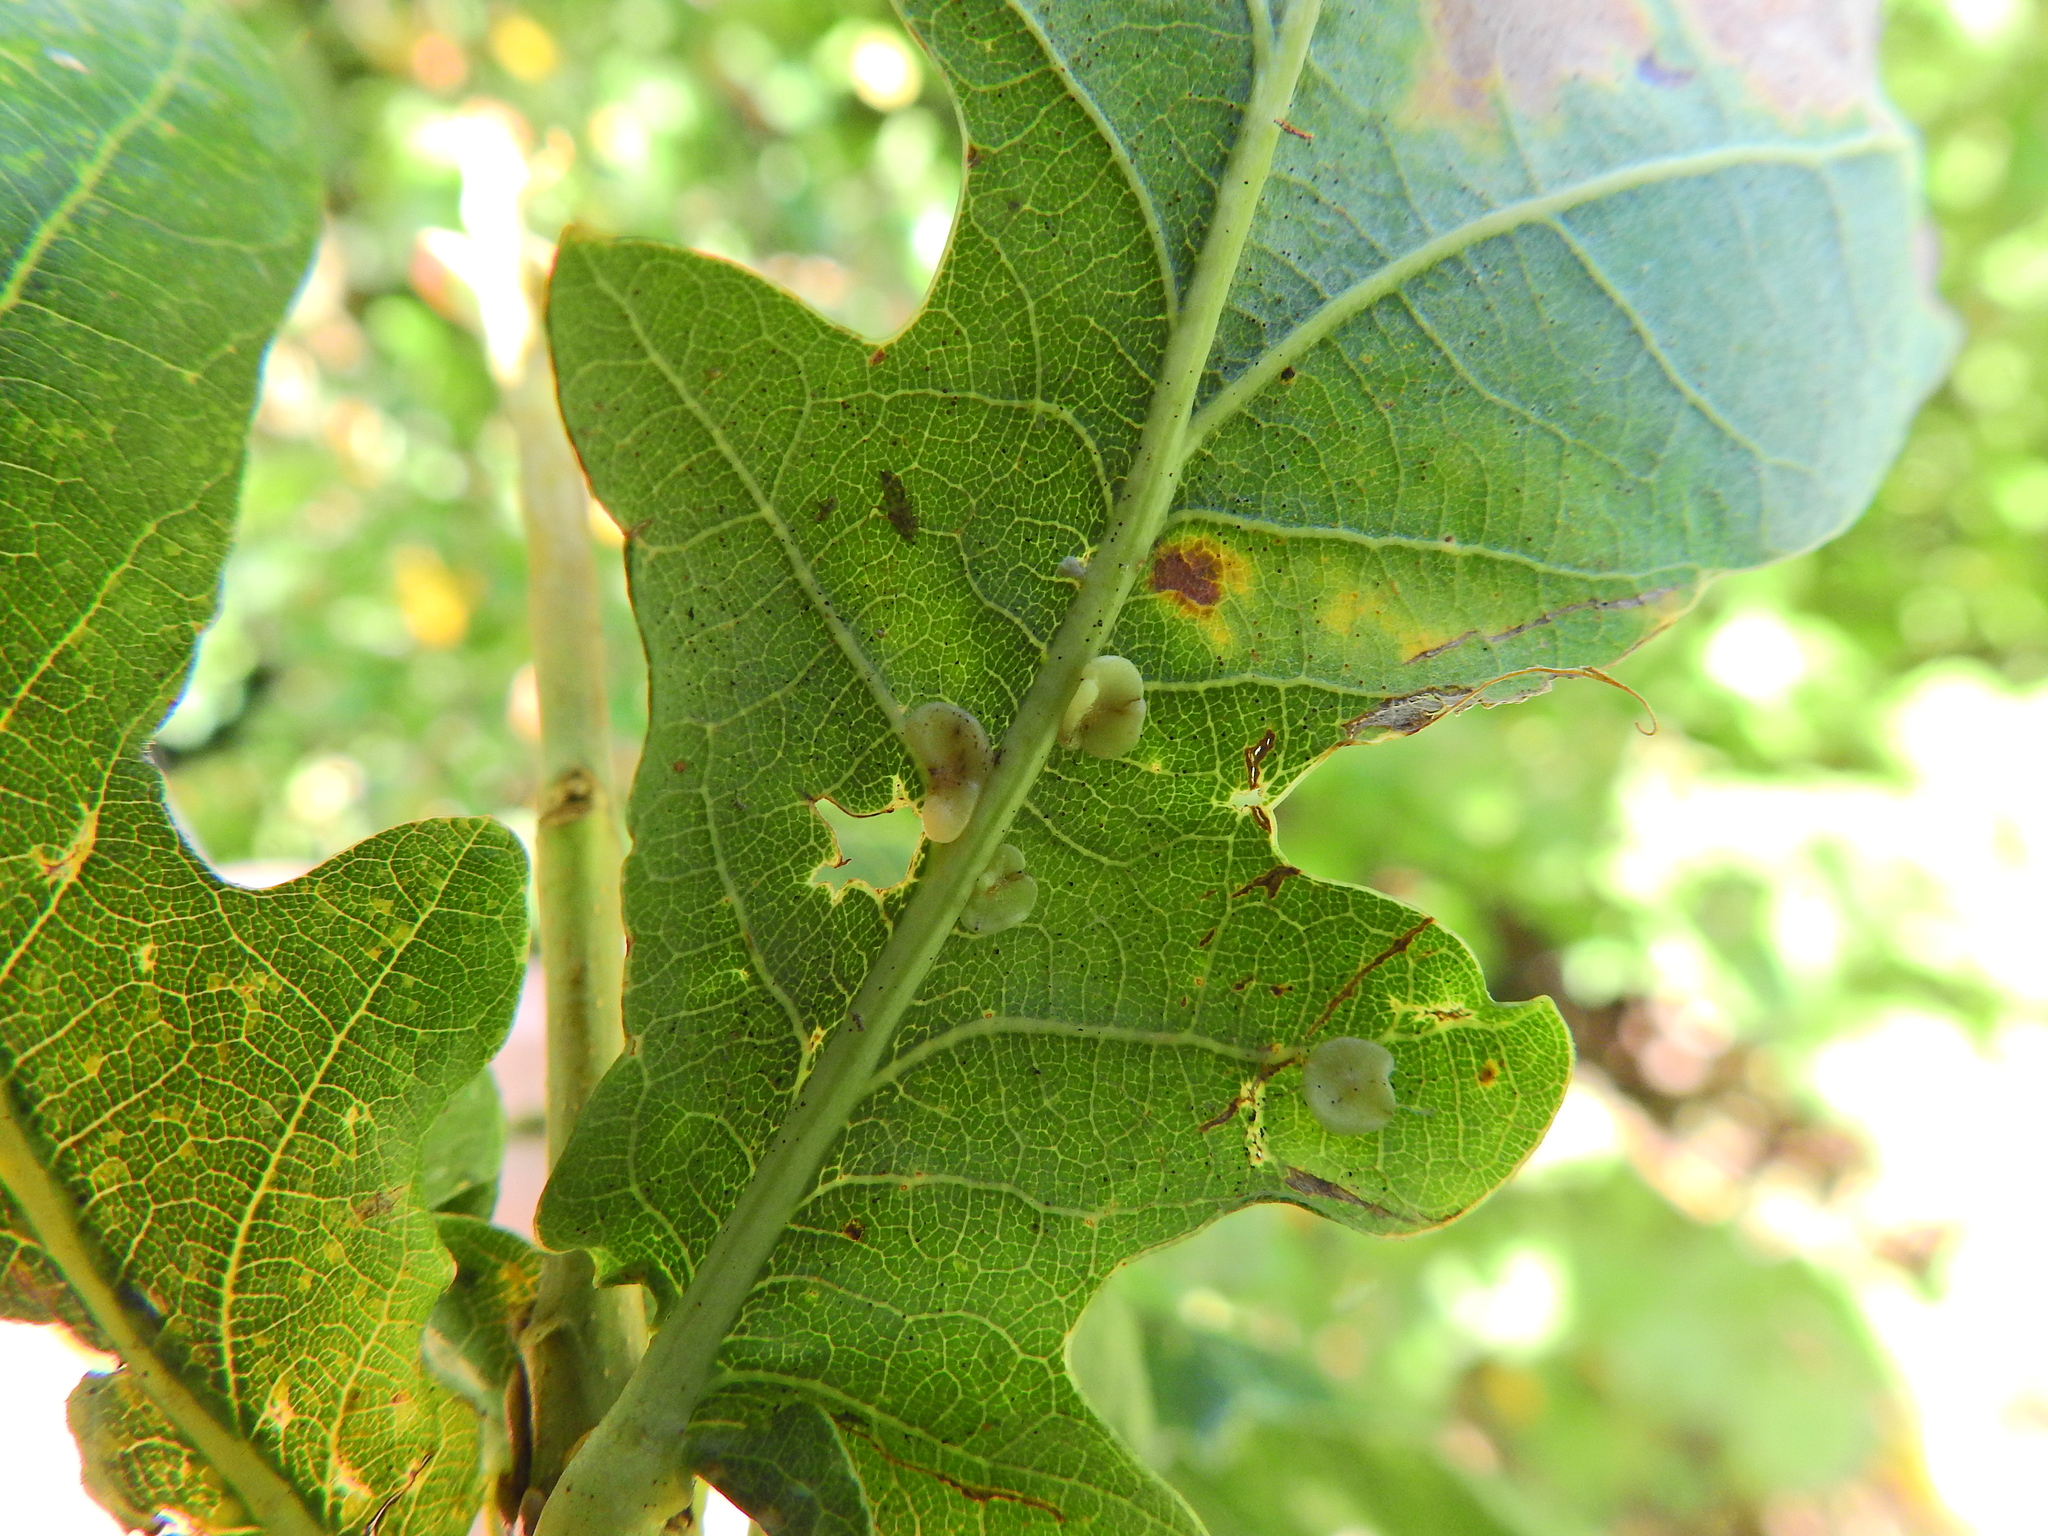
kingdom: Animalia
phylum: Arthropoda
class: Insecta
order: Hymenoptera
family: Cynipidae
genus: Neuroterus
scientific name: Neuroterus albipes
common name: Smooth spangle gall
